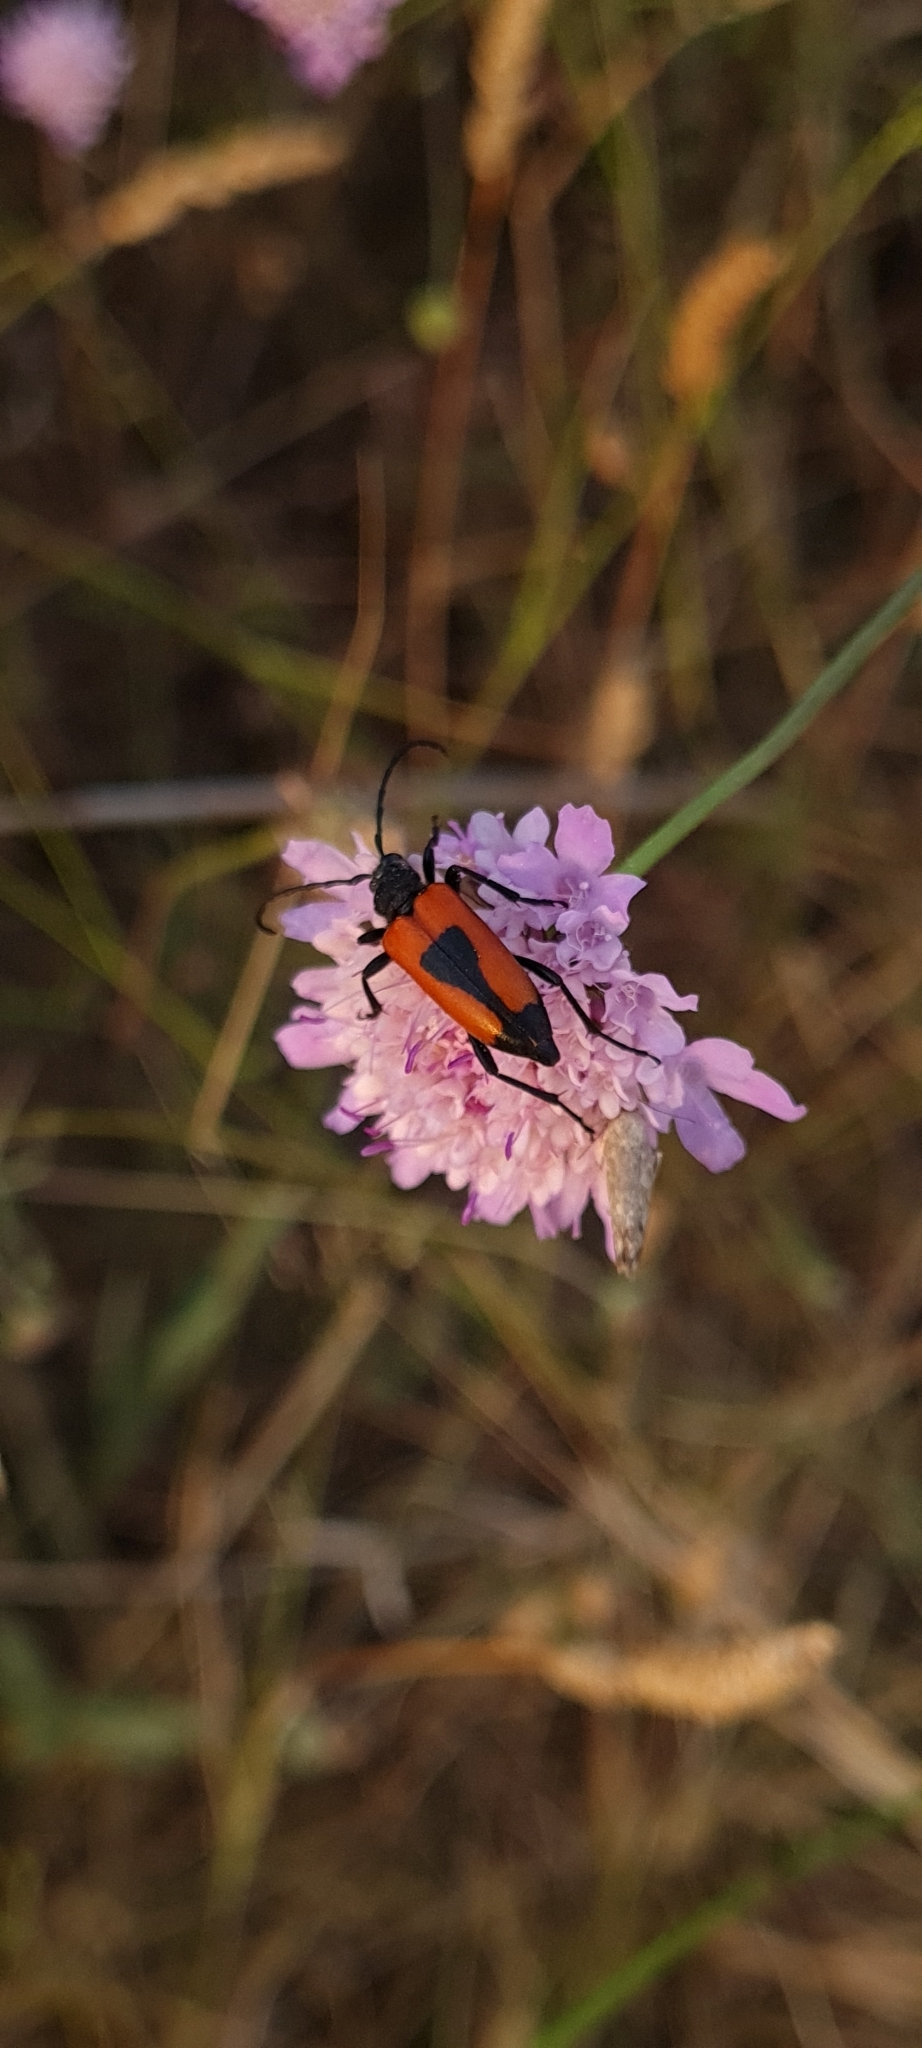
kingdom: Animalia
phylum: Arthropoda
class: Insecta
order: Coleoptera
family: Cerambycidae
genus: Stictoleptura
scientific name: Stictoleptura cordigera
